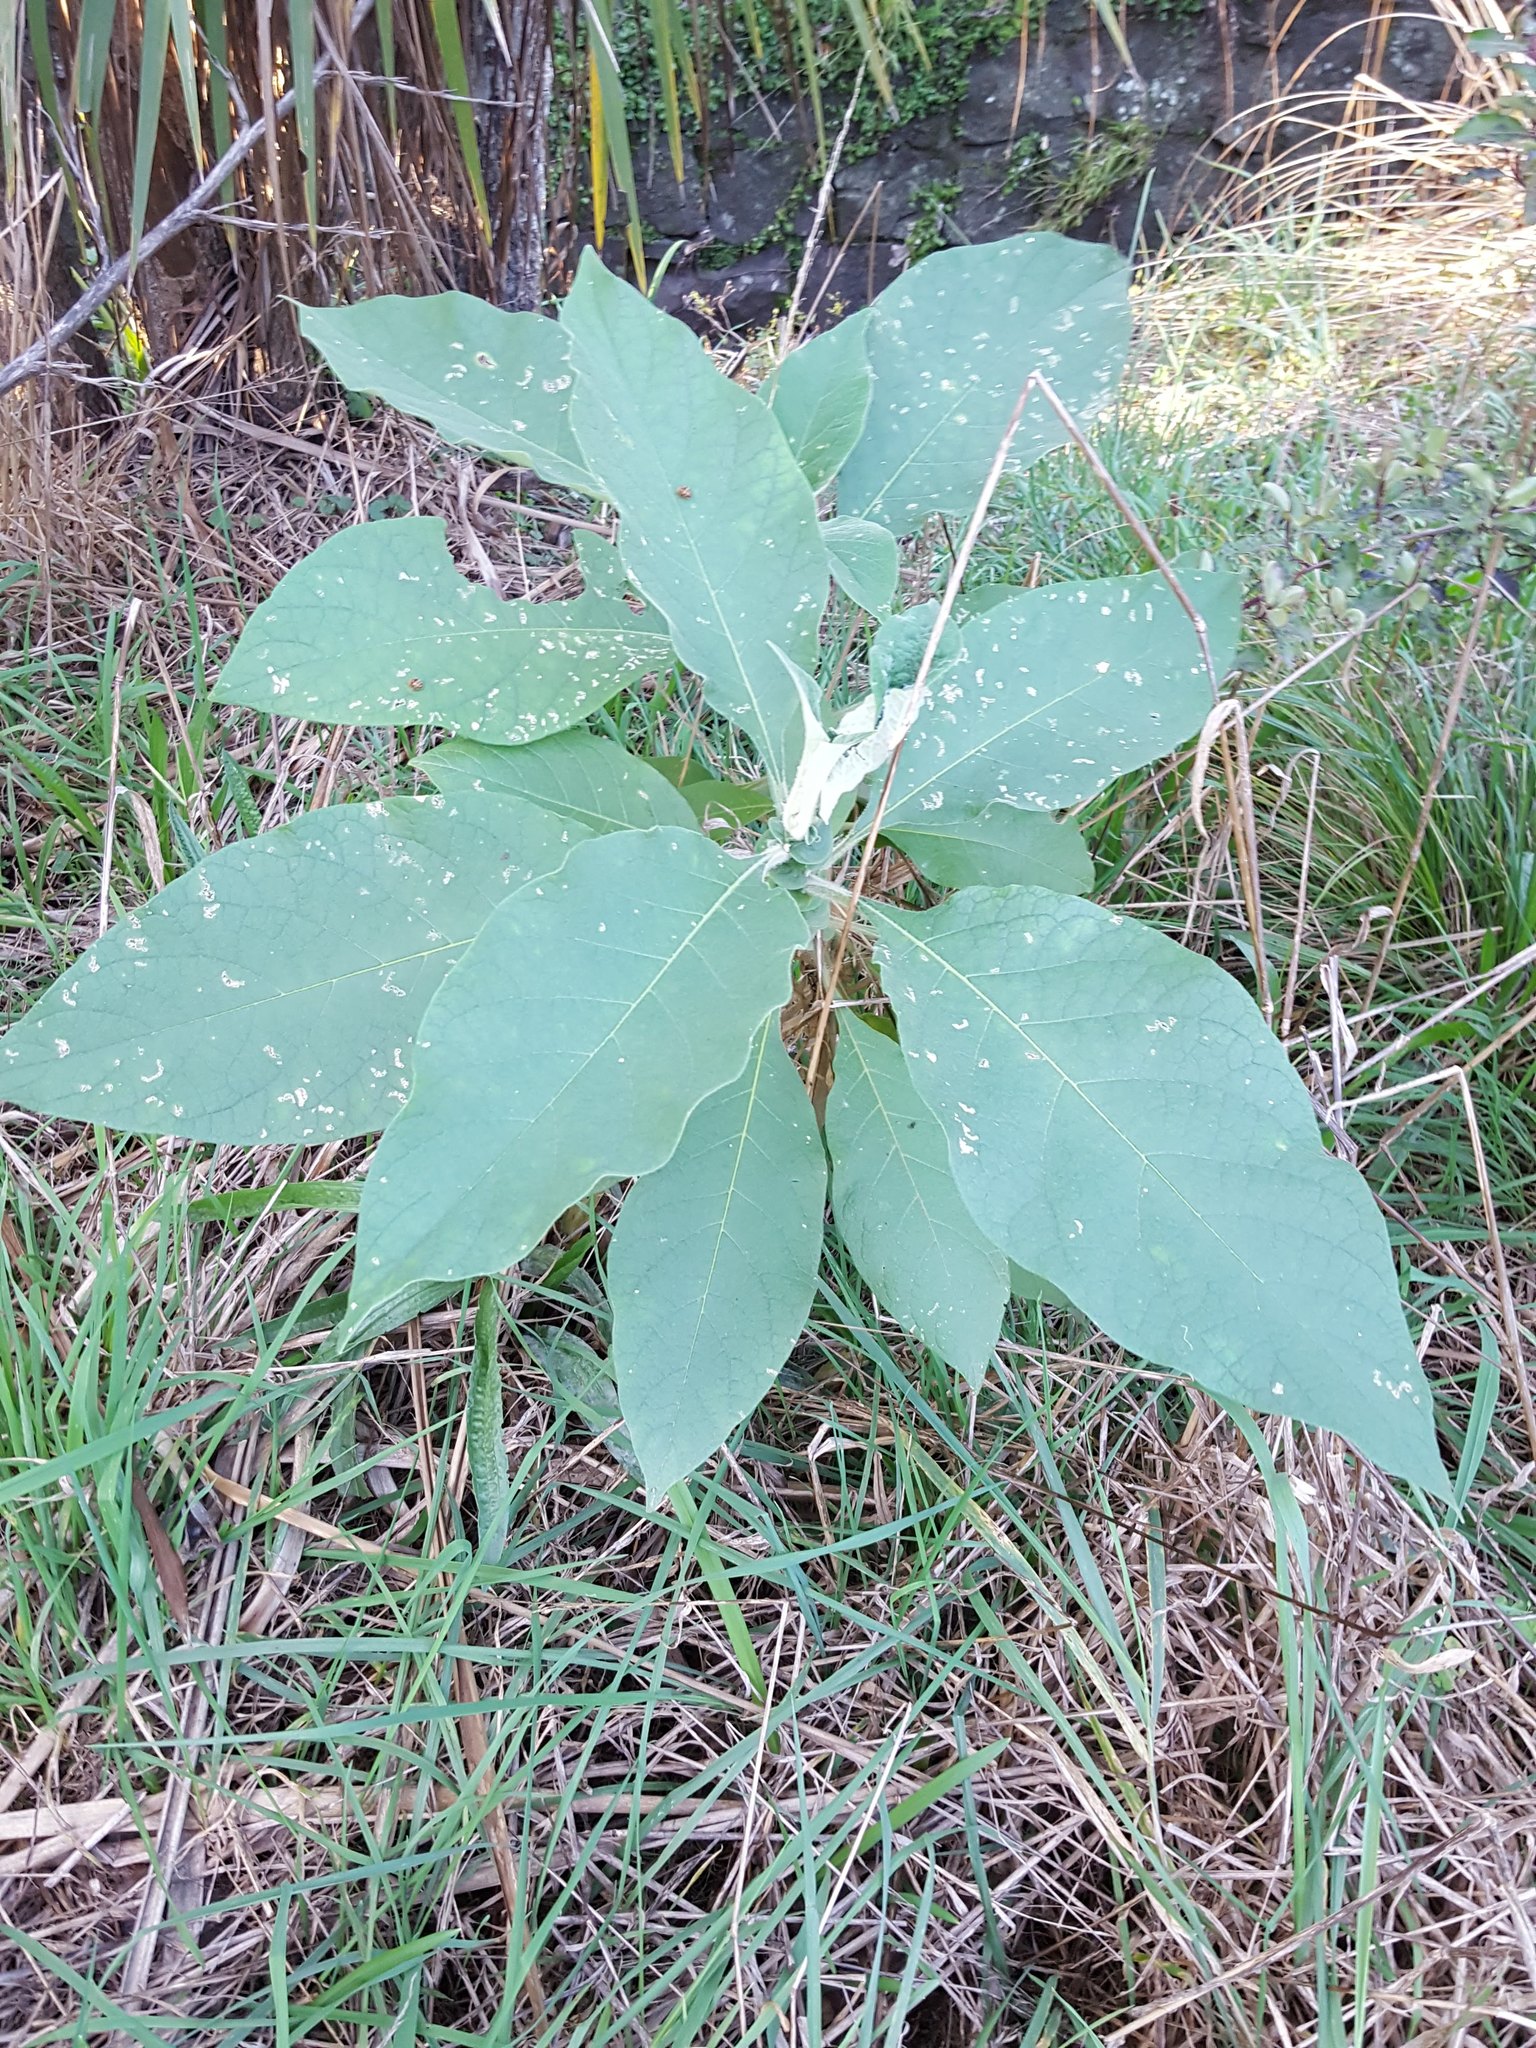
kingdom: Plantae
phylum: Tracheophyta
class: Magnoliopsida
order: Solanales
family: Solanaceae
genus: Solanum
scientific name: Solanum mauritianum
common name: Earleaf nightshade
